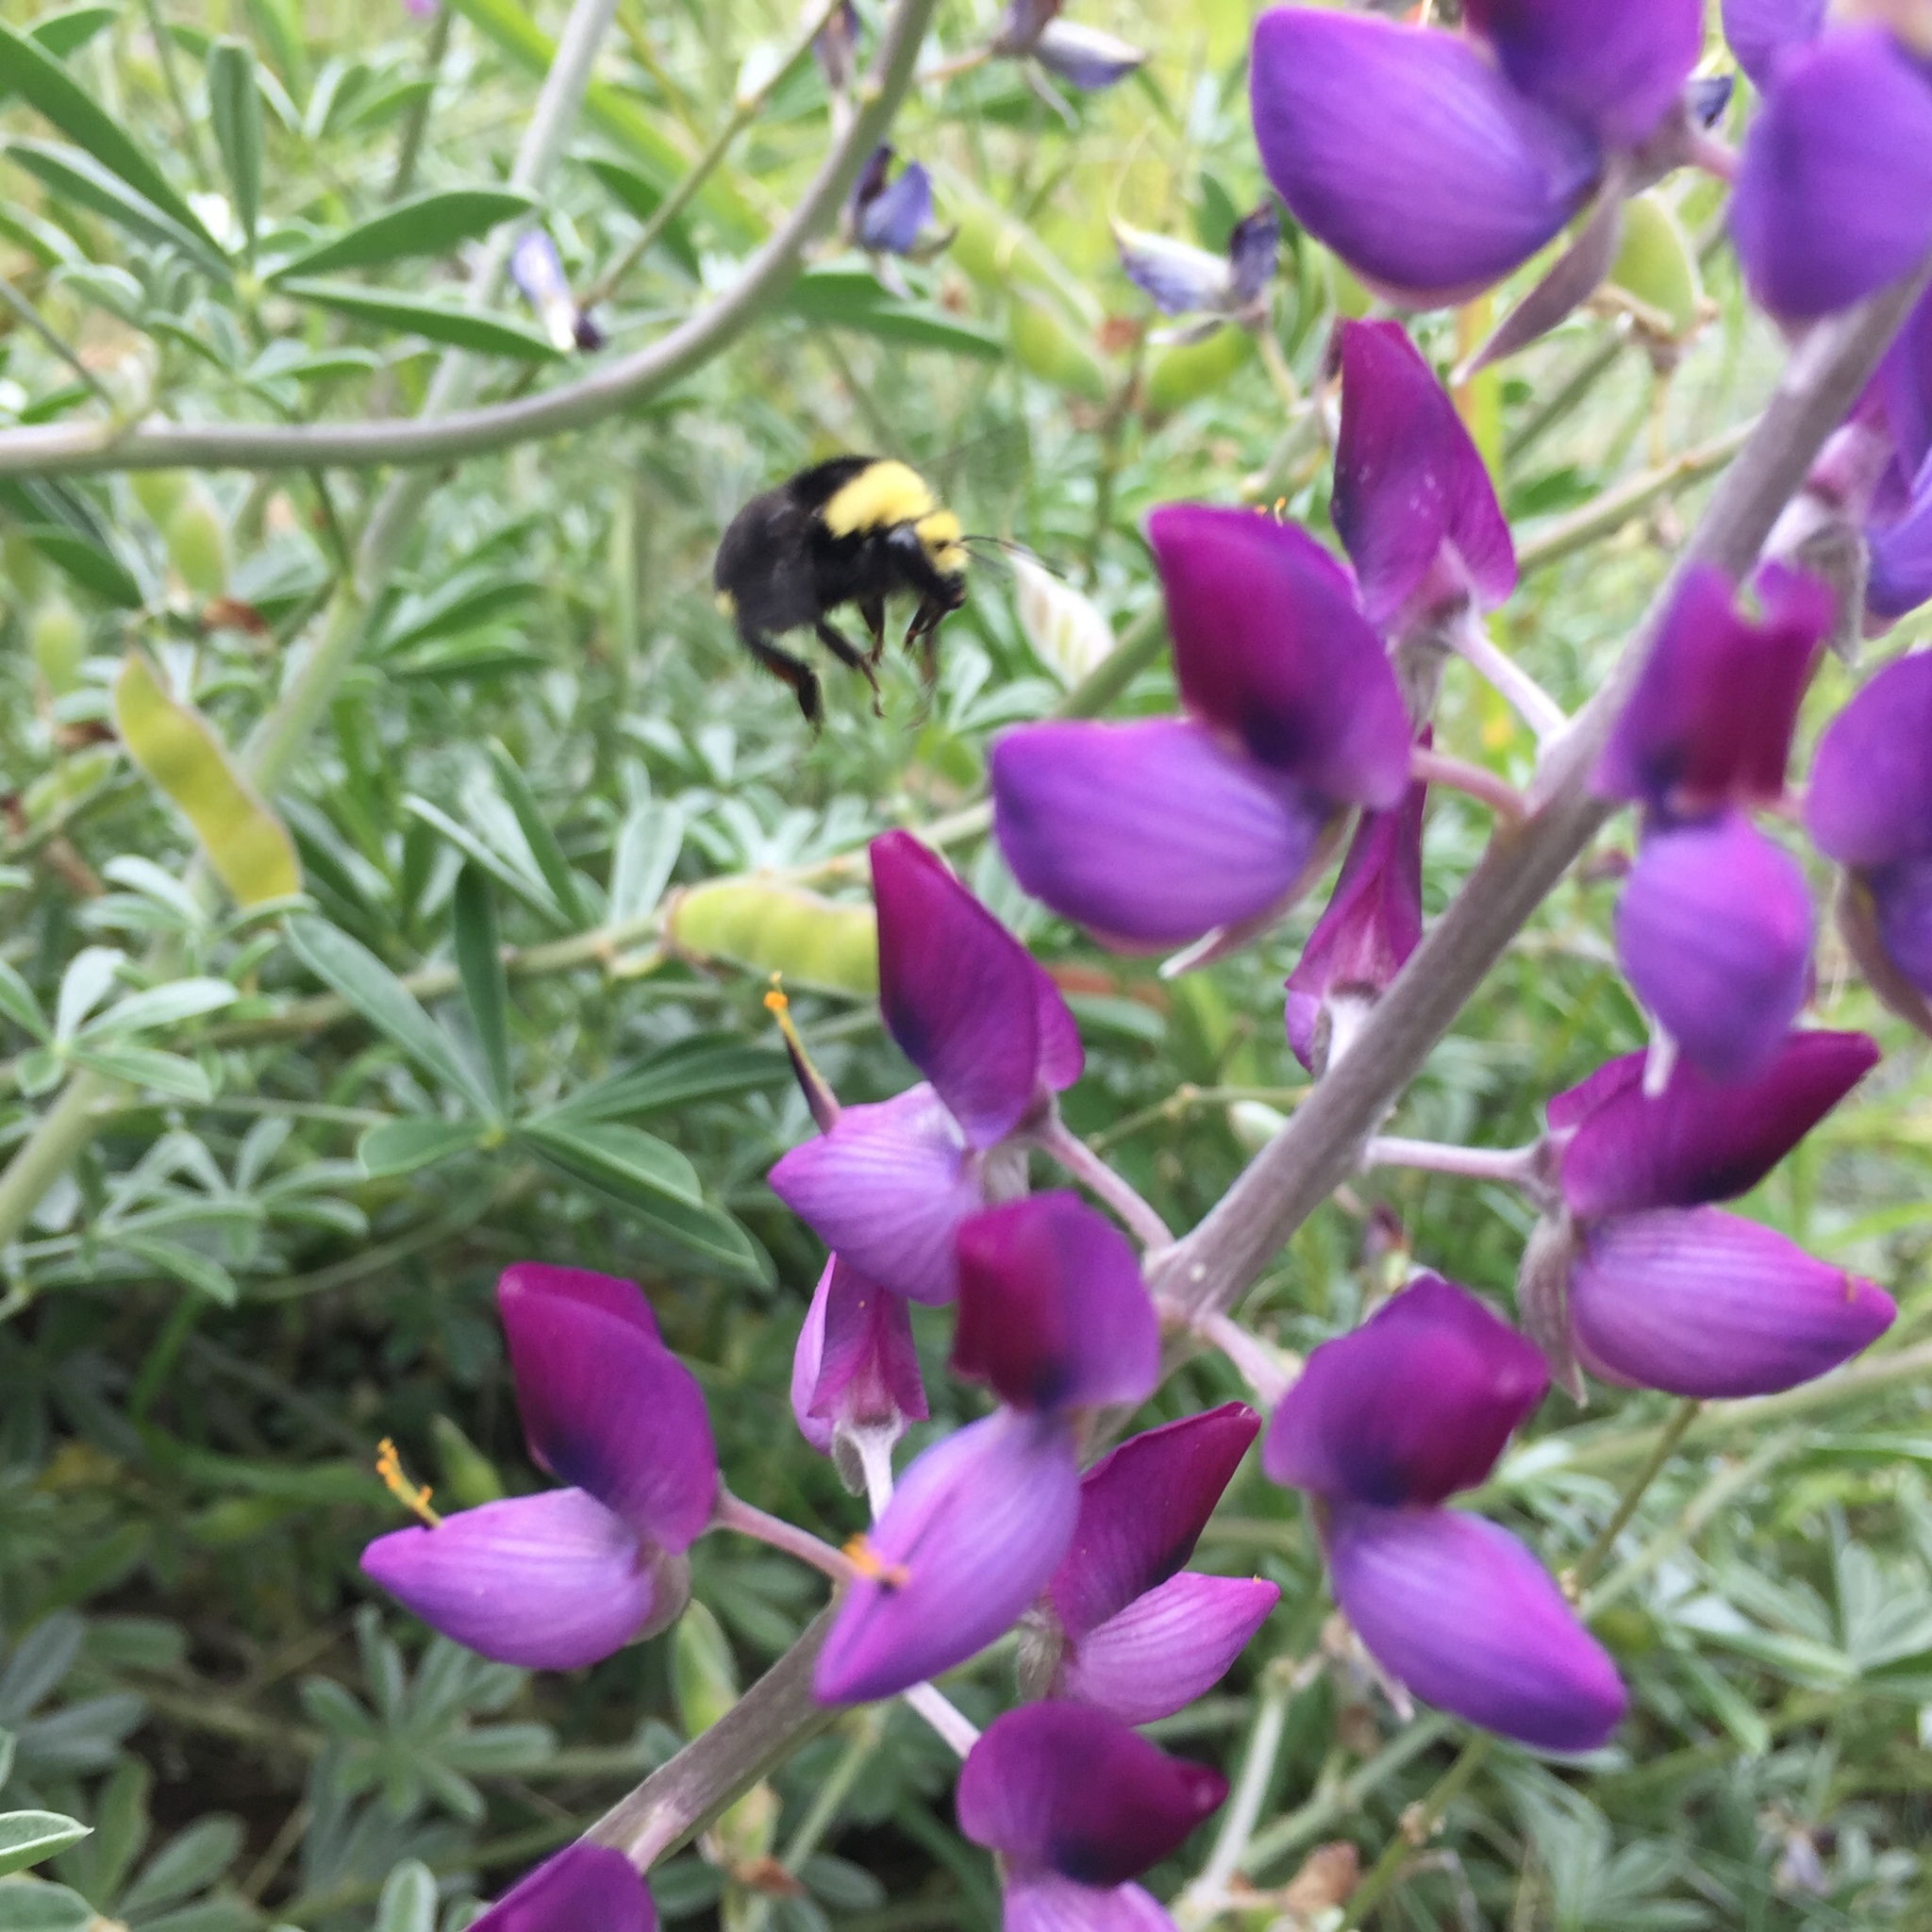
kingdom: Animalia
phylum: Arthropoda
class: Insecta
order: Hymenoptera
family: Apidae
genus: Bombus
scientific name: Bombus vosnesenskii
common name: Vosnesensky bumble bee
